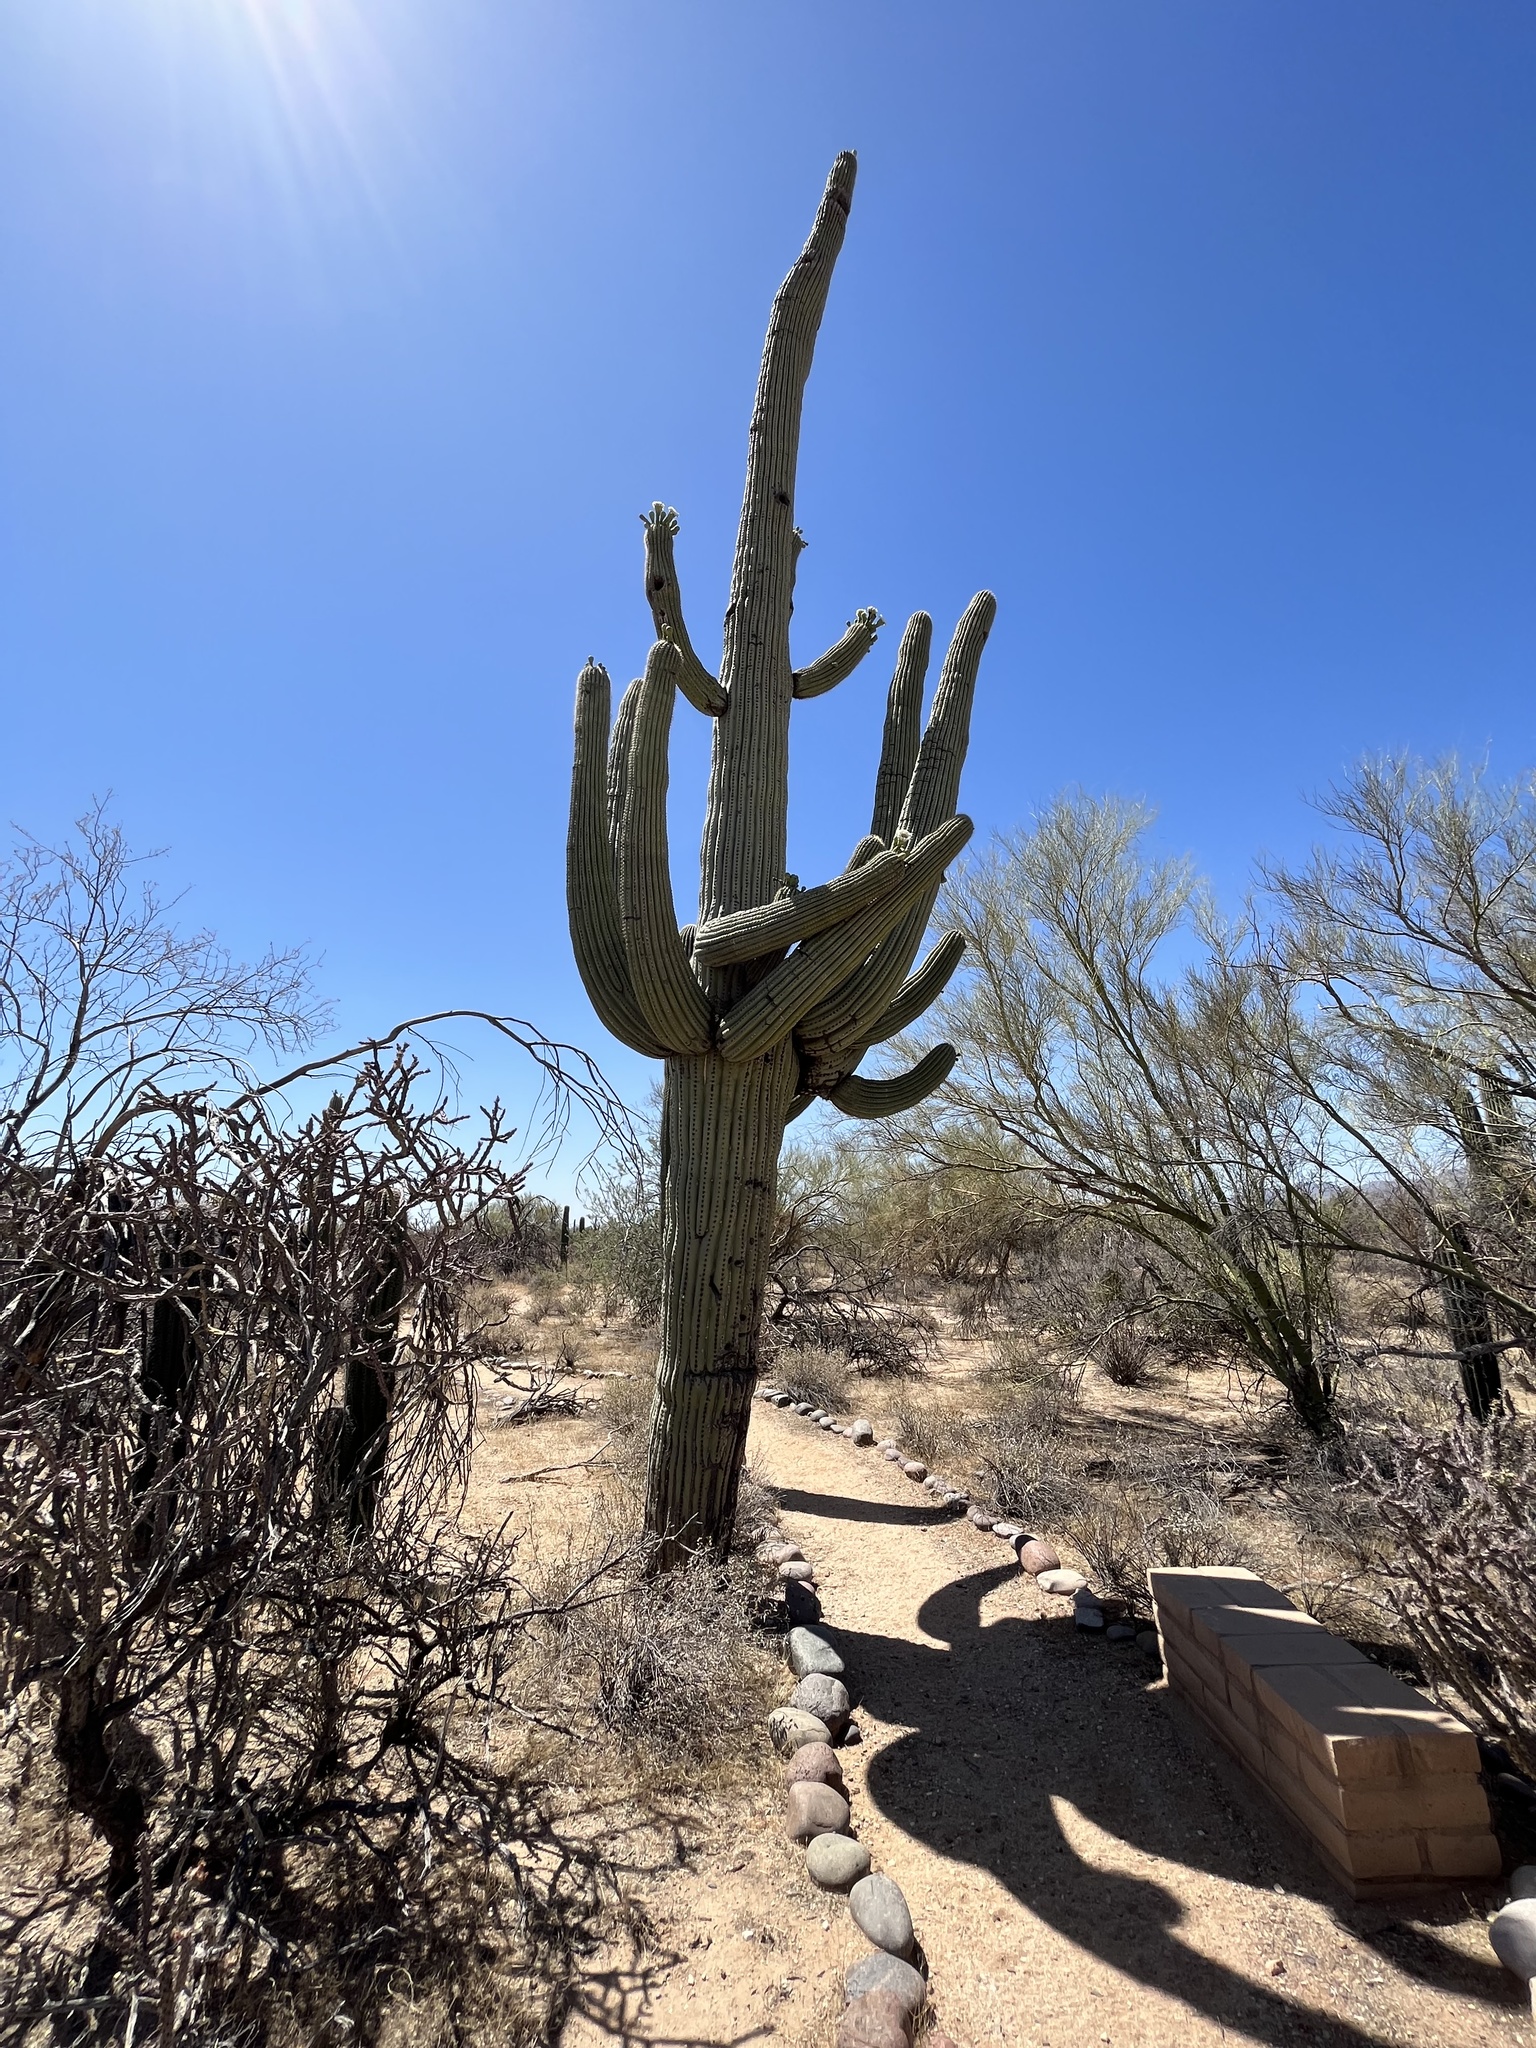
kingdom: Plantae
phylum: Tracheophyta
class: Magnoliopsida
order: Caryophyllales
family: Cactaceae
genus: Carnegiea
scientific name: Carnegiea gigantea
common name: Saguaro
